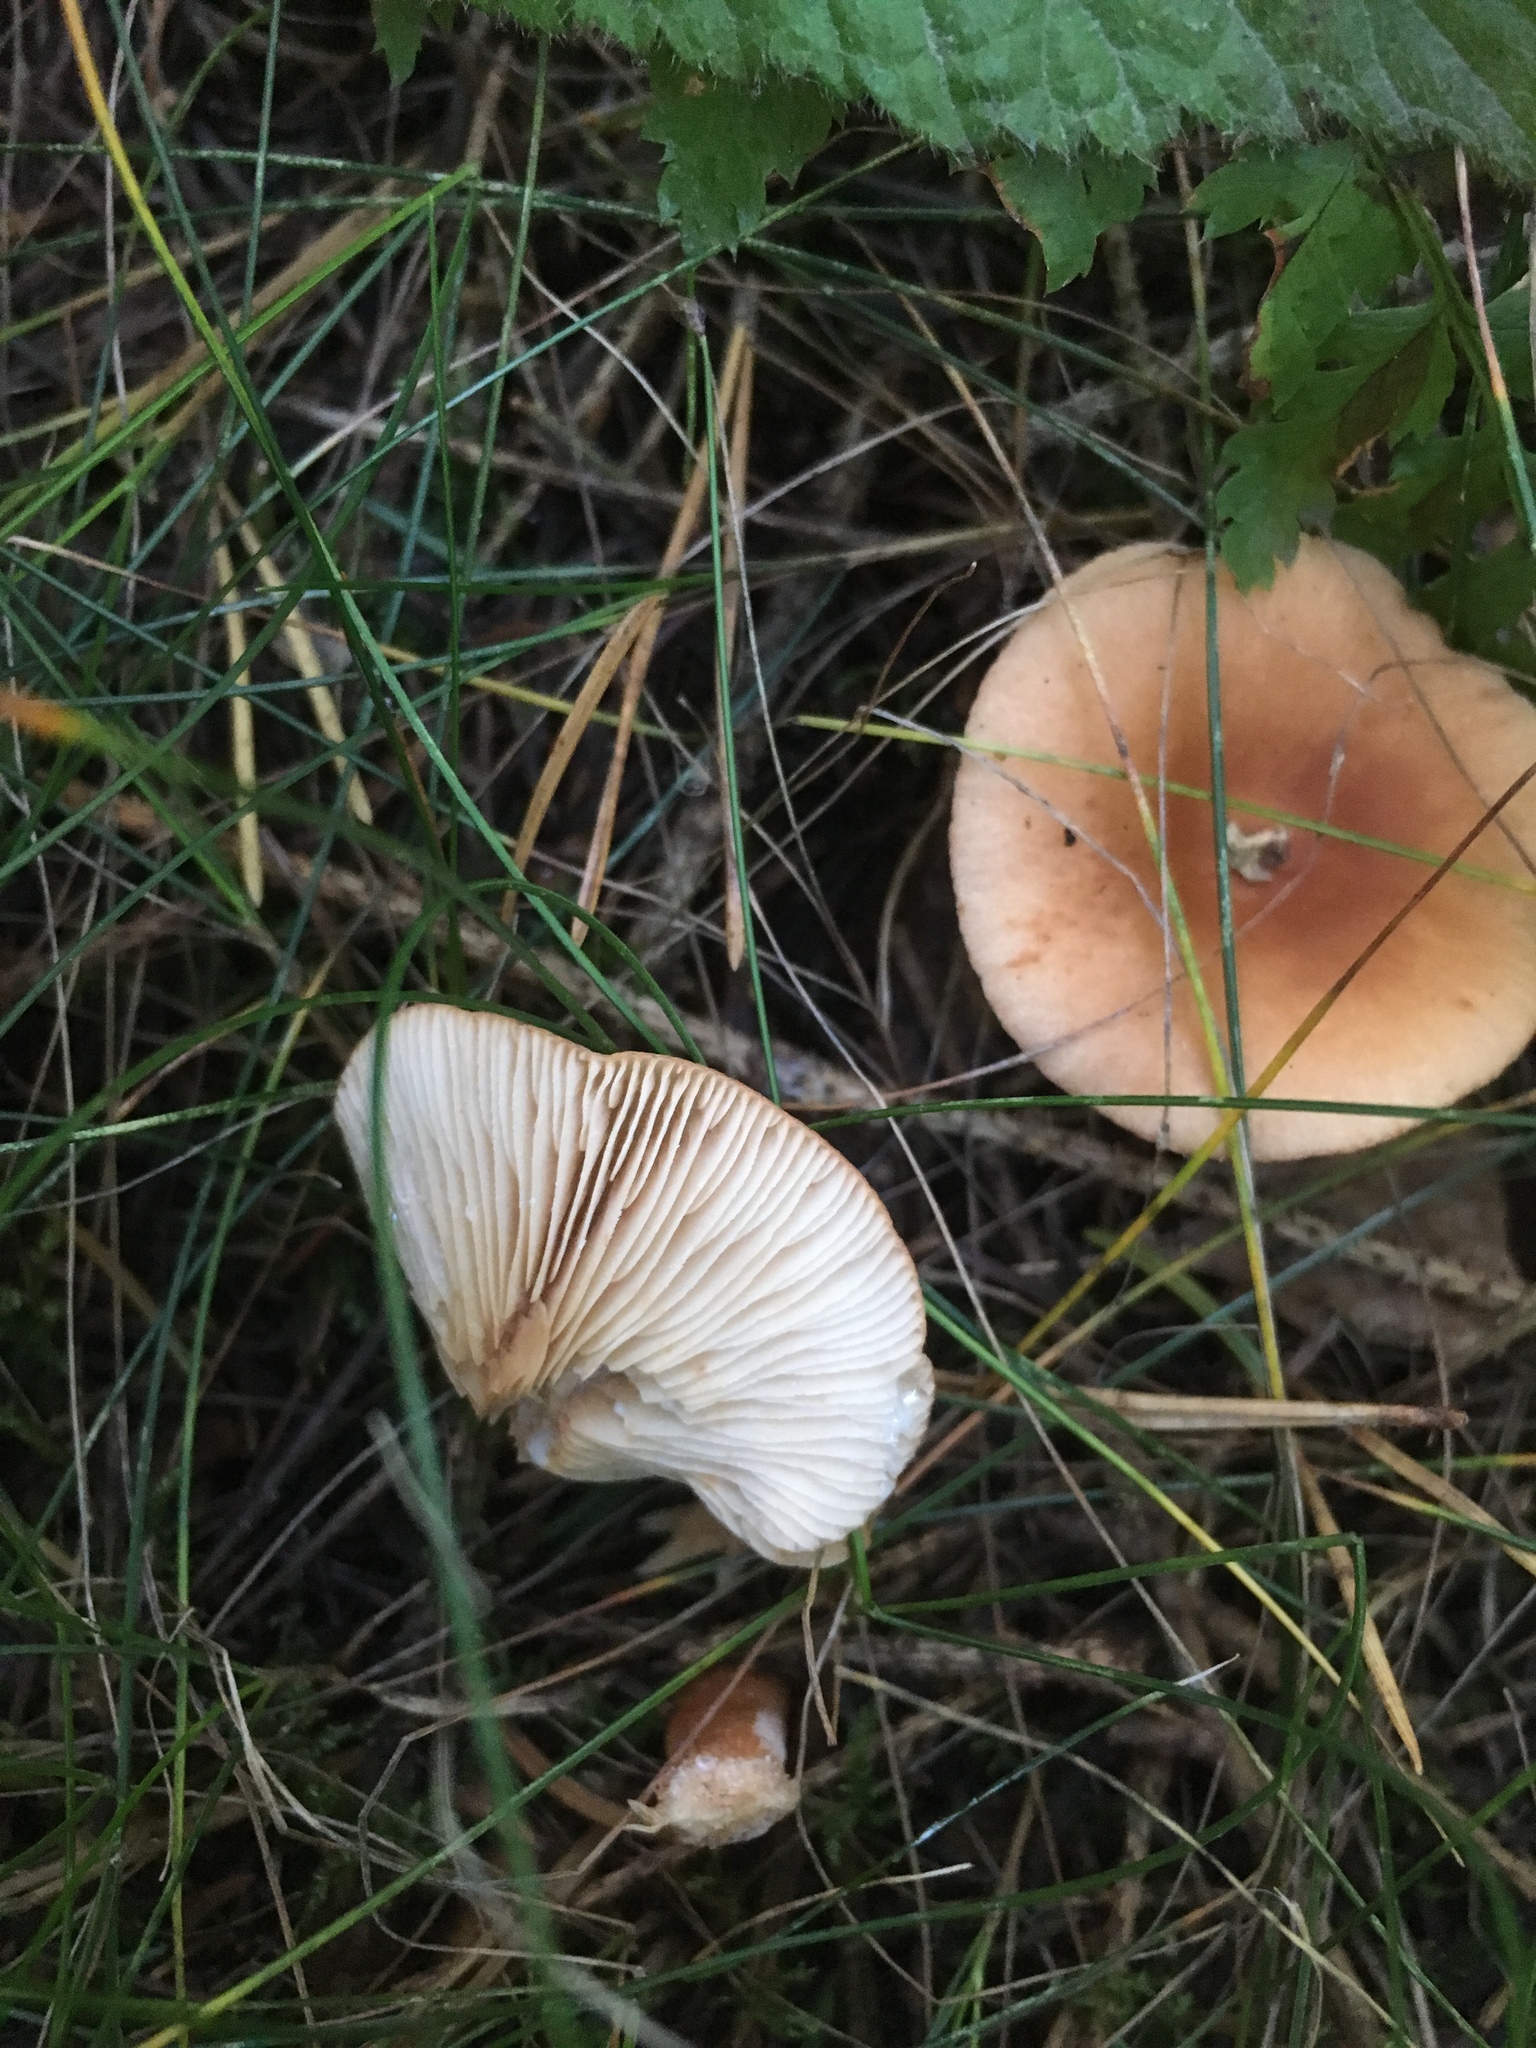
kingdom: Fungi
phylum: Basidiomycota
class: Agaricomycetes
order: Agaricales
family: Tricholomataceae
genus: Paralepista
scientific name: Paralepista flaccida
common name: Tawny funnel cap
